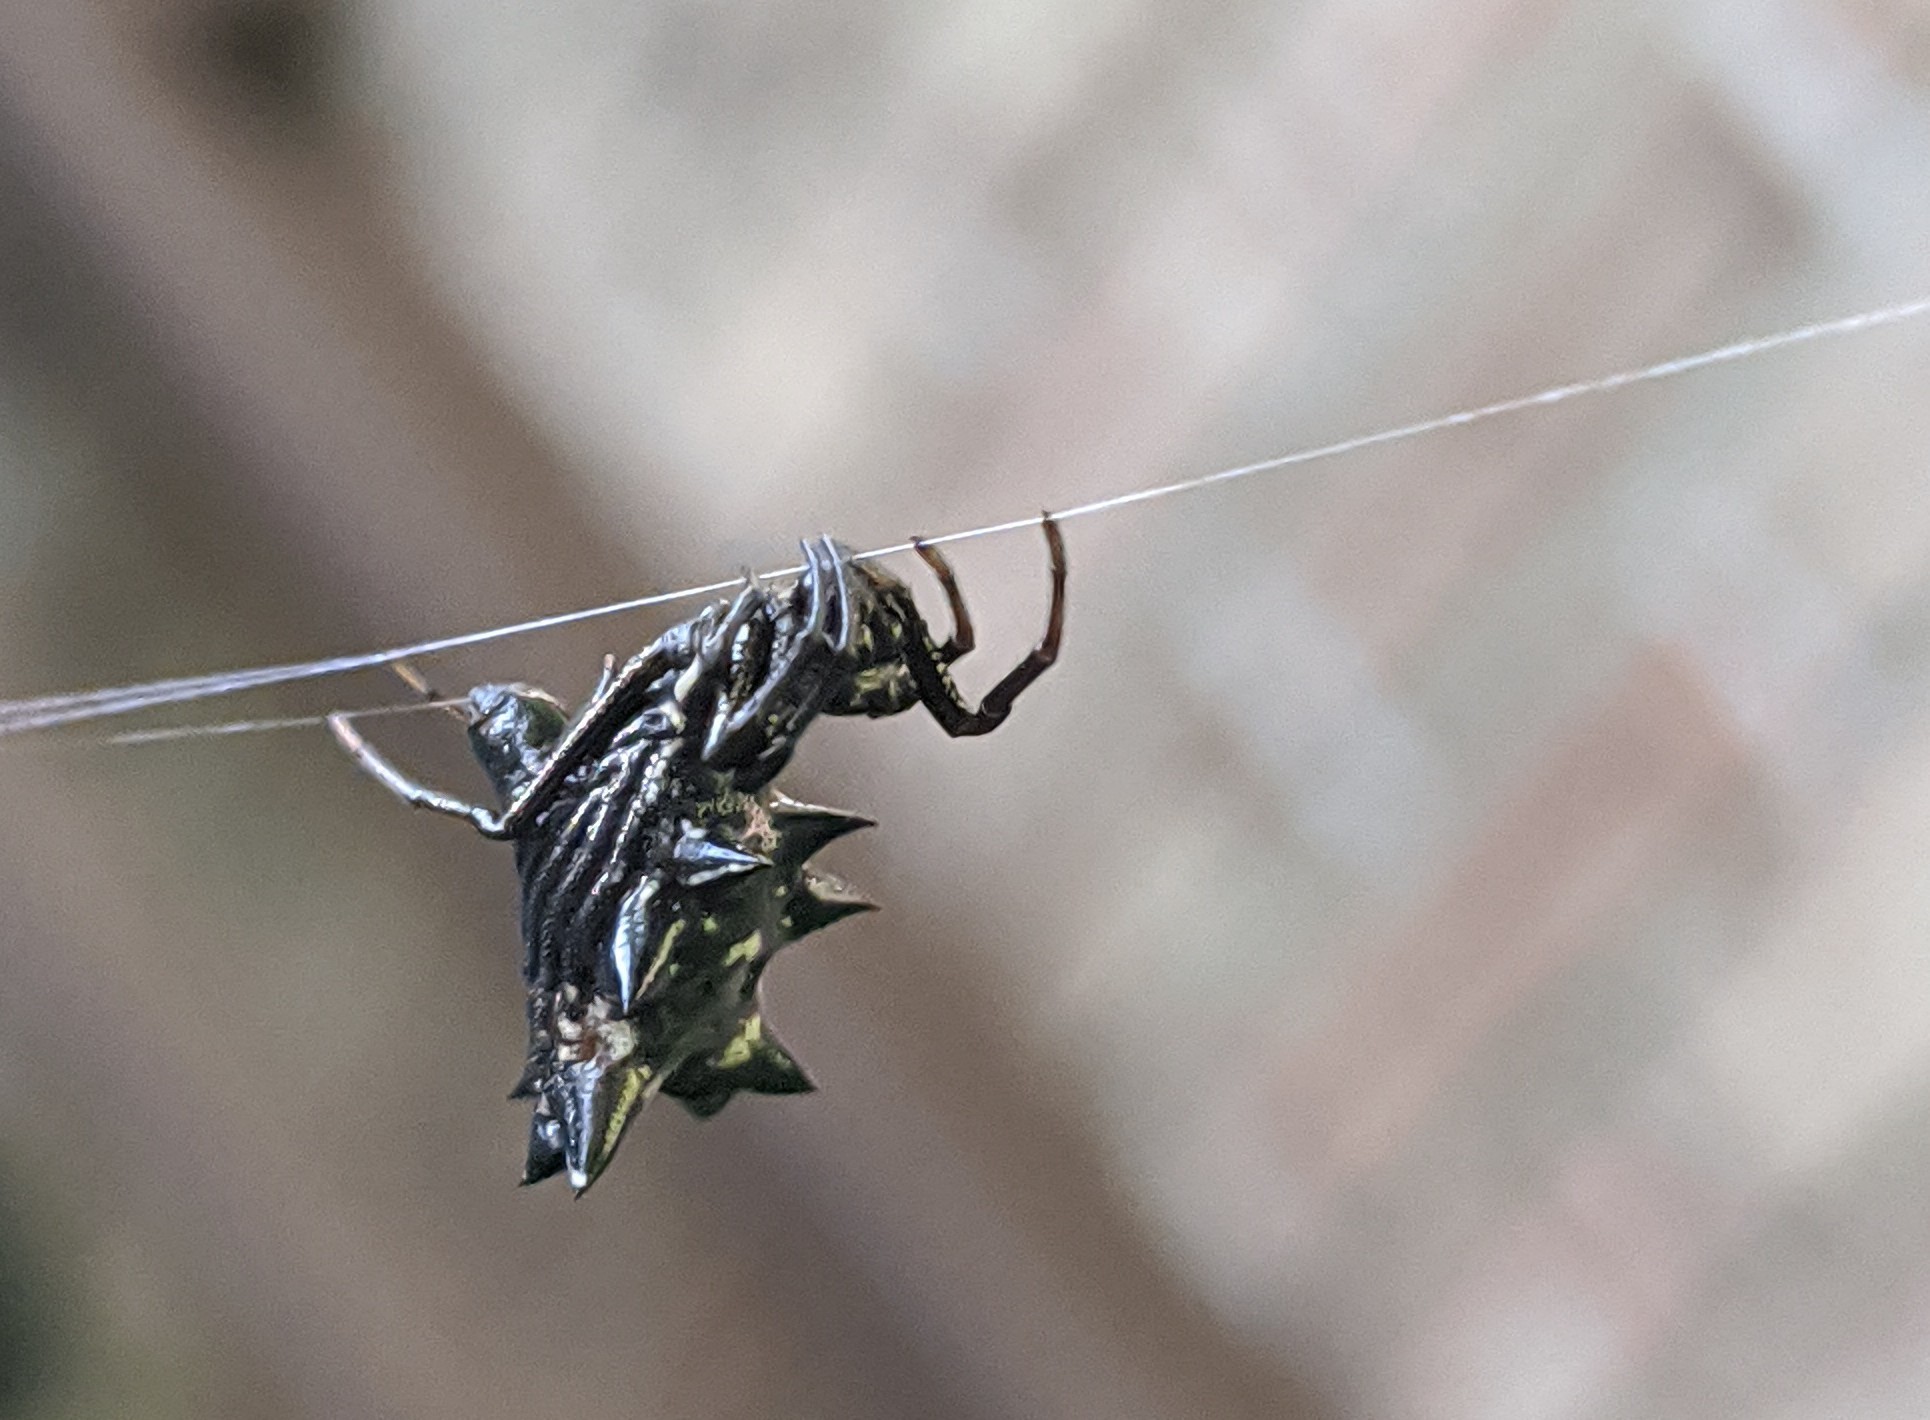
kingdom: Animalia
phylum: Arthropoda
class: Arachnida
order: Araneae
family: Araneidae
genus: Micrathena
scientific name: Micrathena gracilis
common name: Orb weavers
